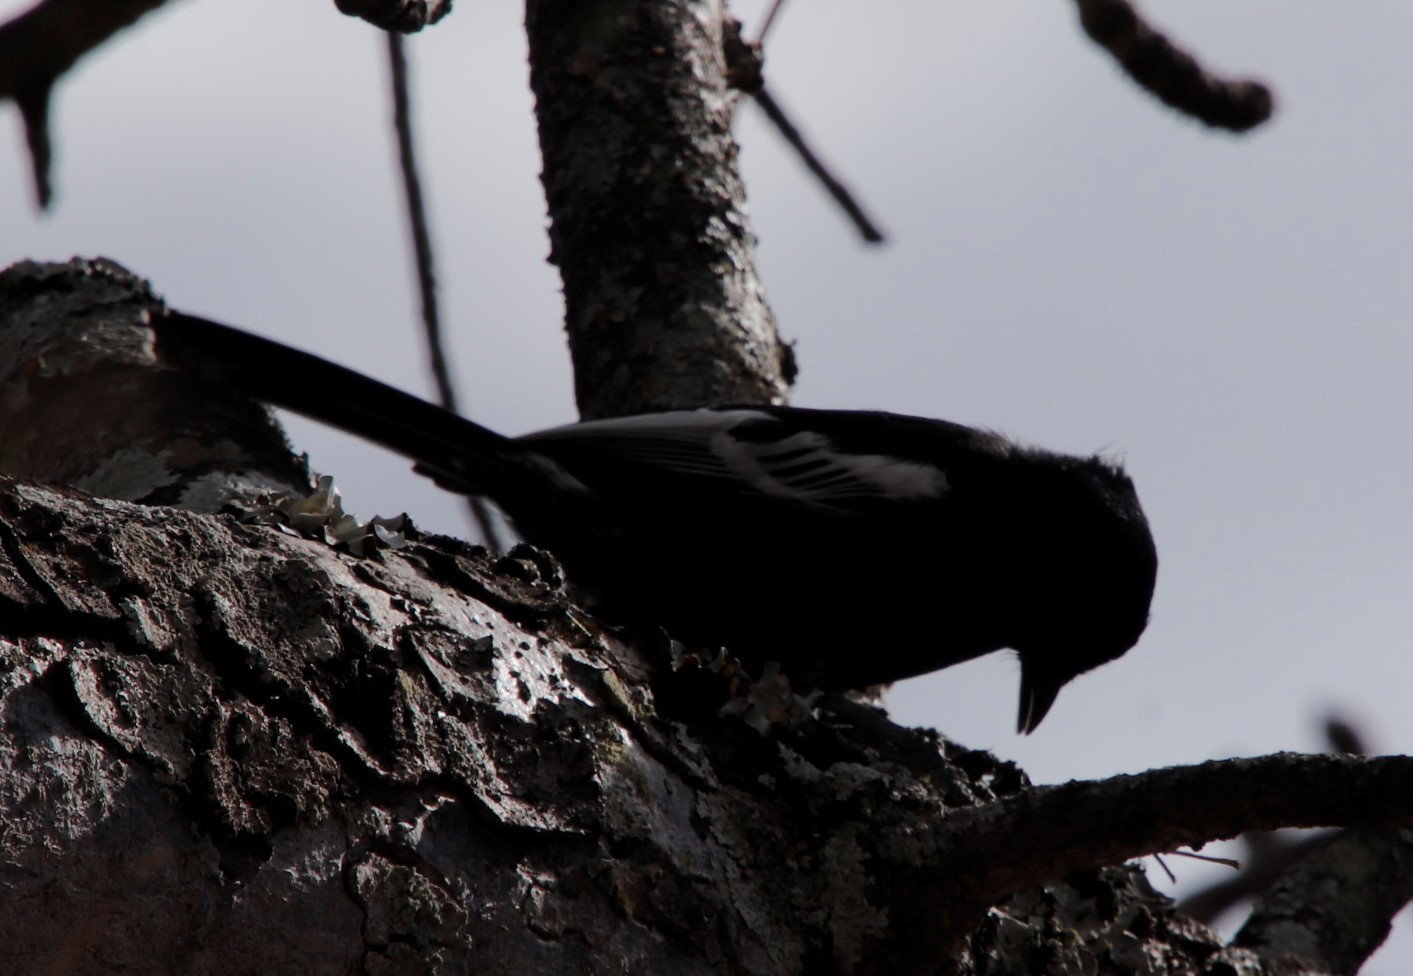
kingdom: Animalia
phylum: Chordata
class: Aves
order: Passeriformes
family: Paridae
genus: Parus
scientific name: Parus niger
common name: Southern black tit
